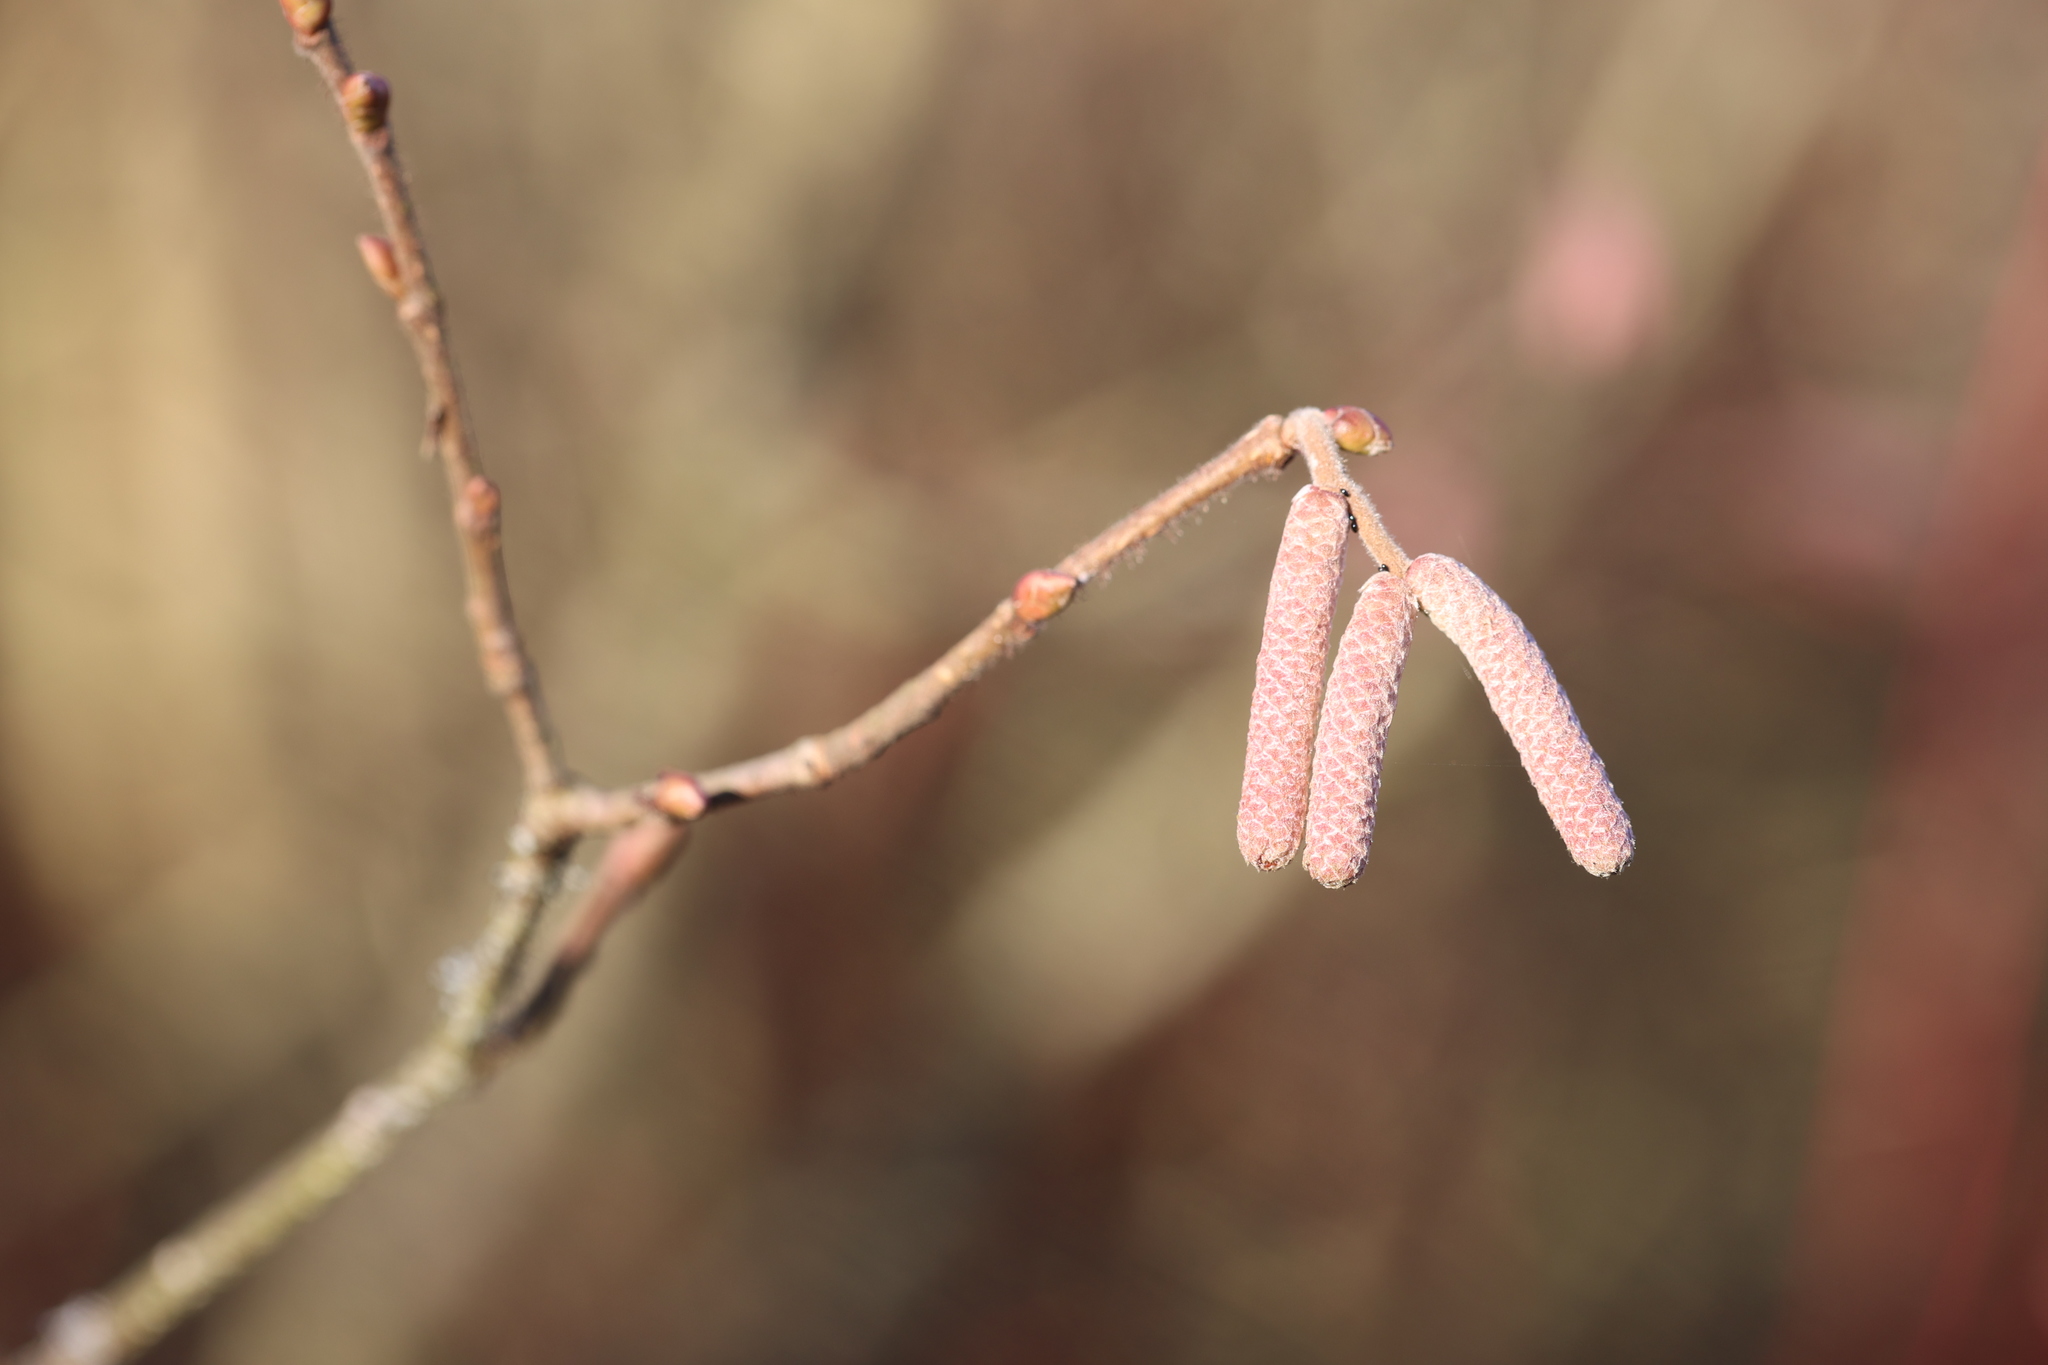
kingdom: Plantae
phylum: Tracheophyta
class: Magnoliopsida
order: Fagales
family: Betulaceae
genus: Corylus
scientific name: Corylus avellana
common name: European hazel
